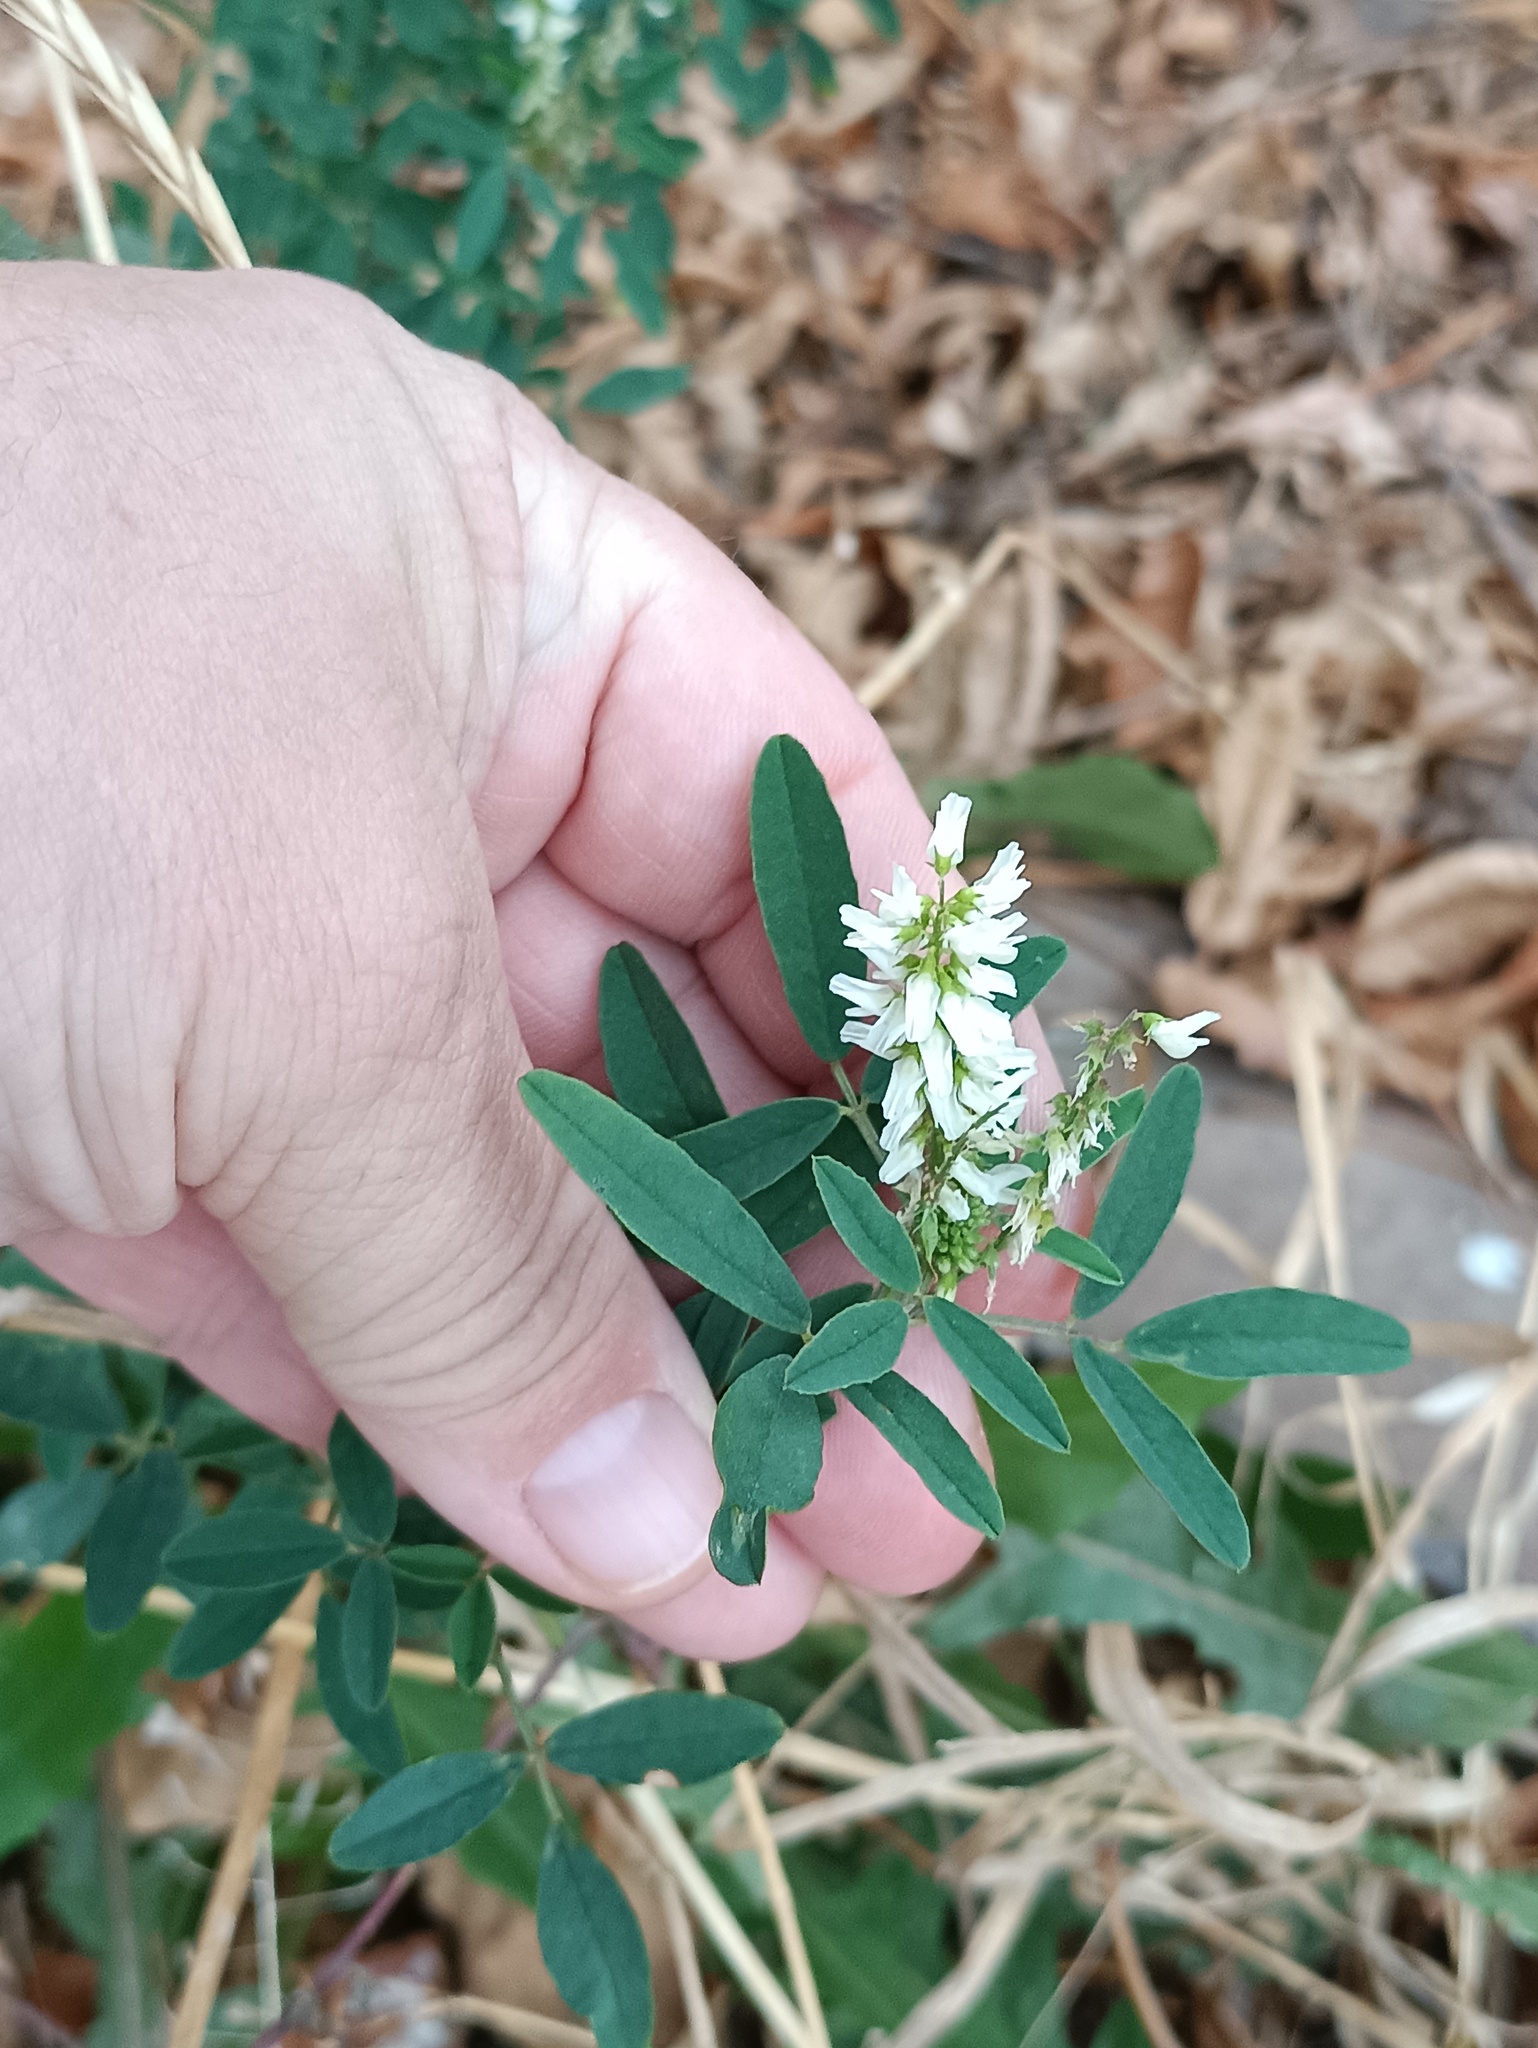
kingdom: Plantae
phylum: Tracheophyta
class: Magnoliopsida
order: Fabales
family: Fabaceae
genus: Melilotus
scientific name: Melilotus albus
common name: White melilot
